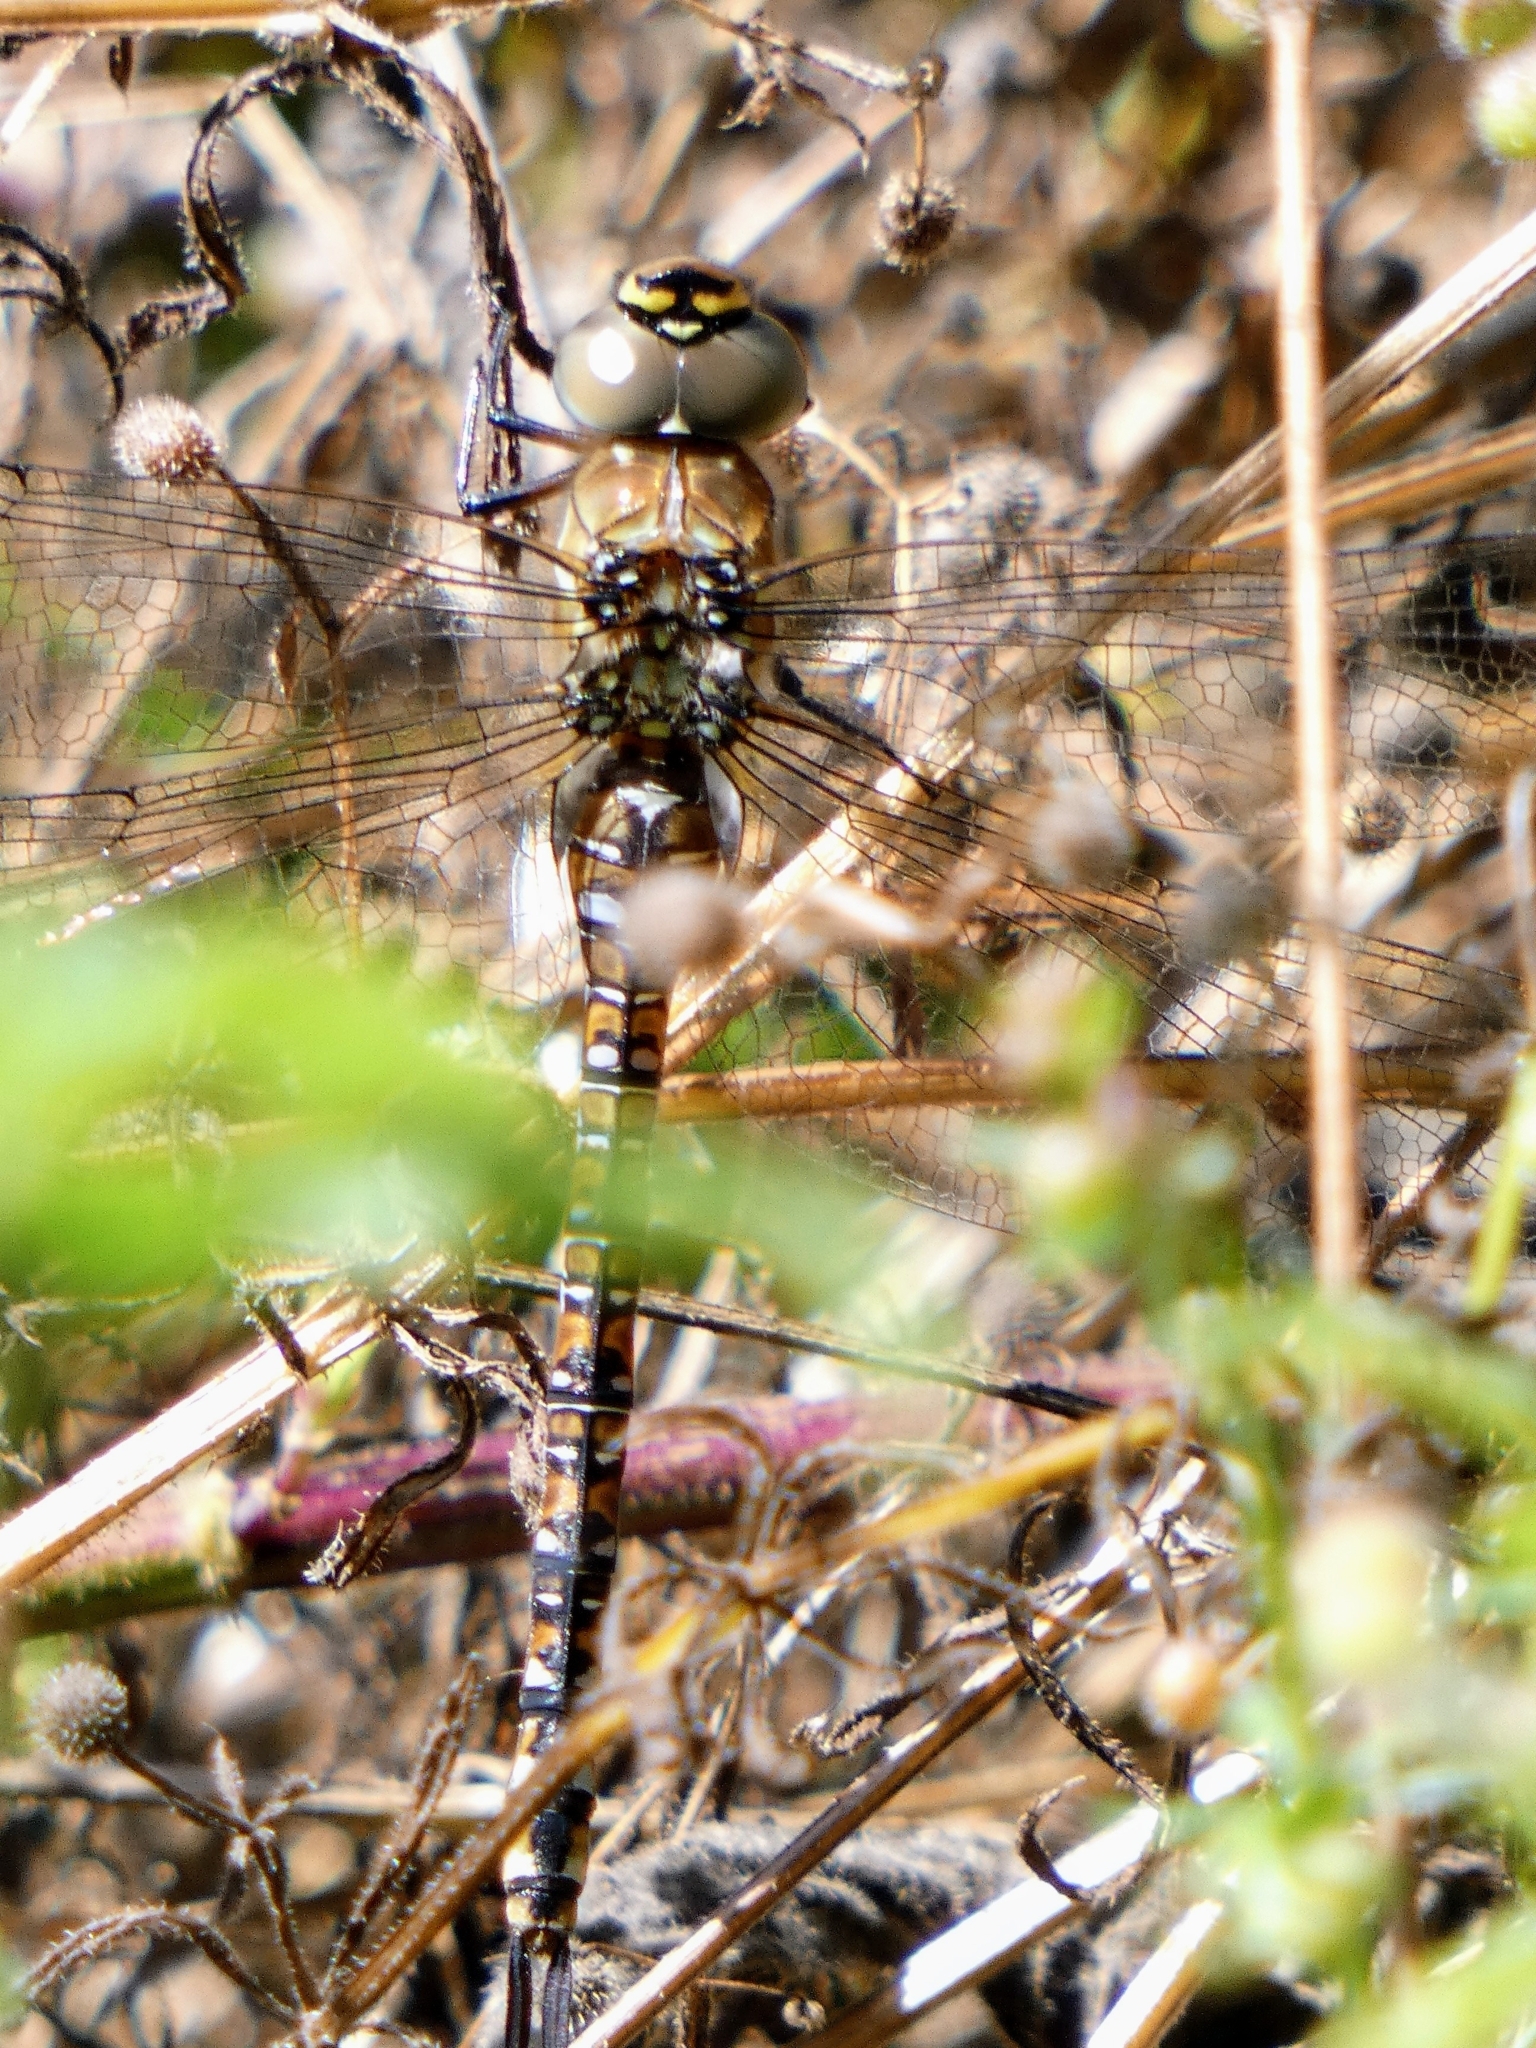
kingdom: Animalia
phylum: Arthropoda
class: Insecta
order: Odonata
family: Aeshnidae
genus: Aeshna
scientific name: Aeshna mixta
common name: Migrant hawker
